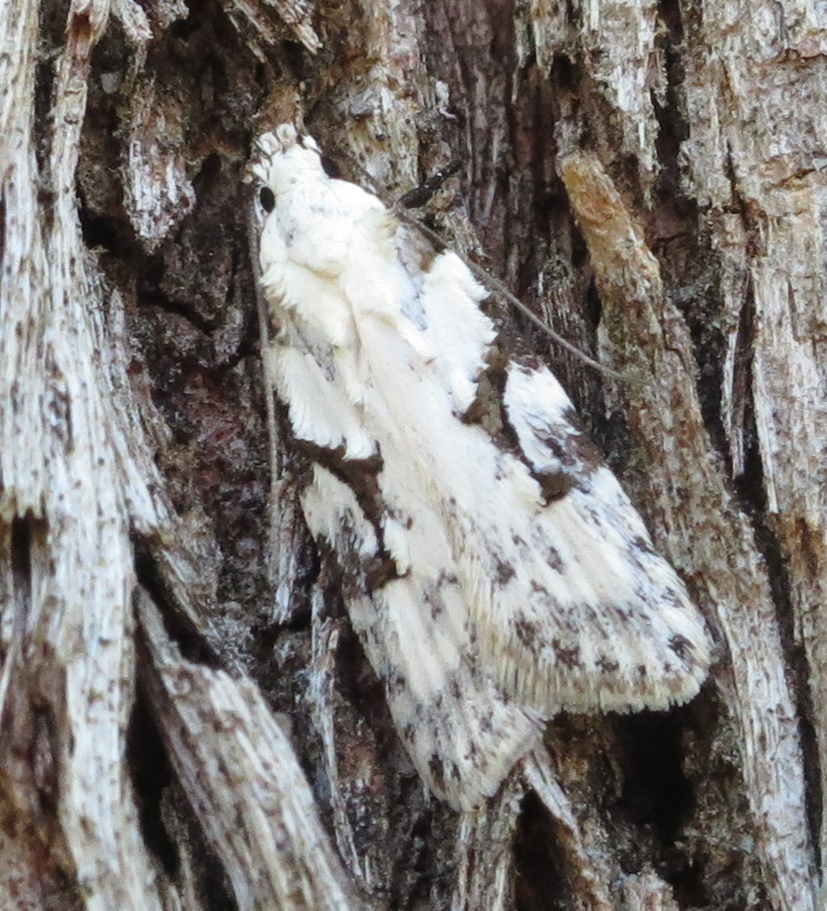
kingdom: Animalia
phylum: Arthropoda
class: Insecta
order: Lepidoptera
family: Oecophoridae
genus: Izatha
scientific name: Izatha mesoschista
